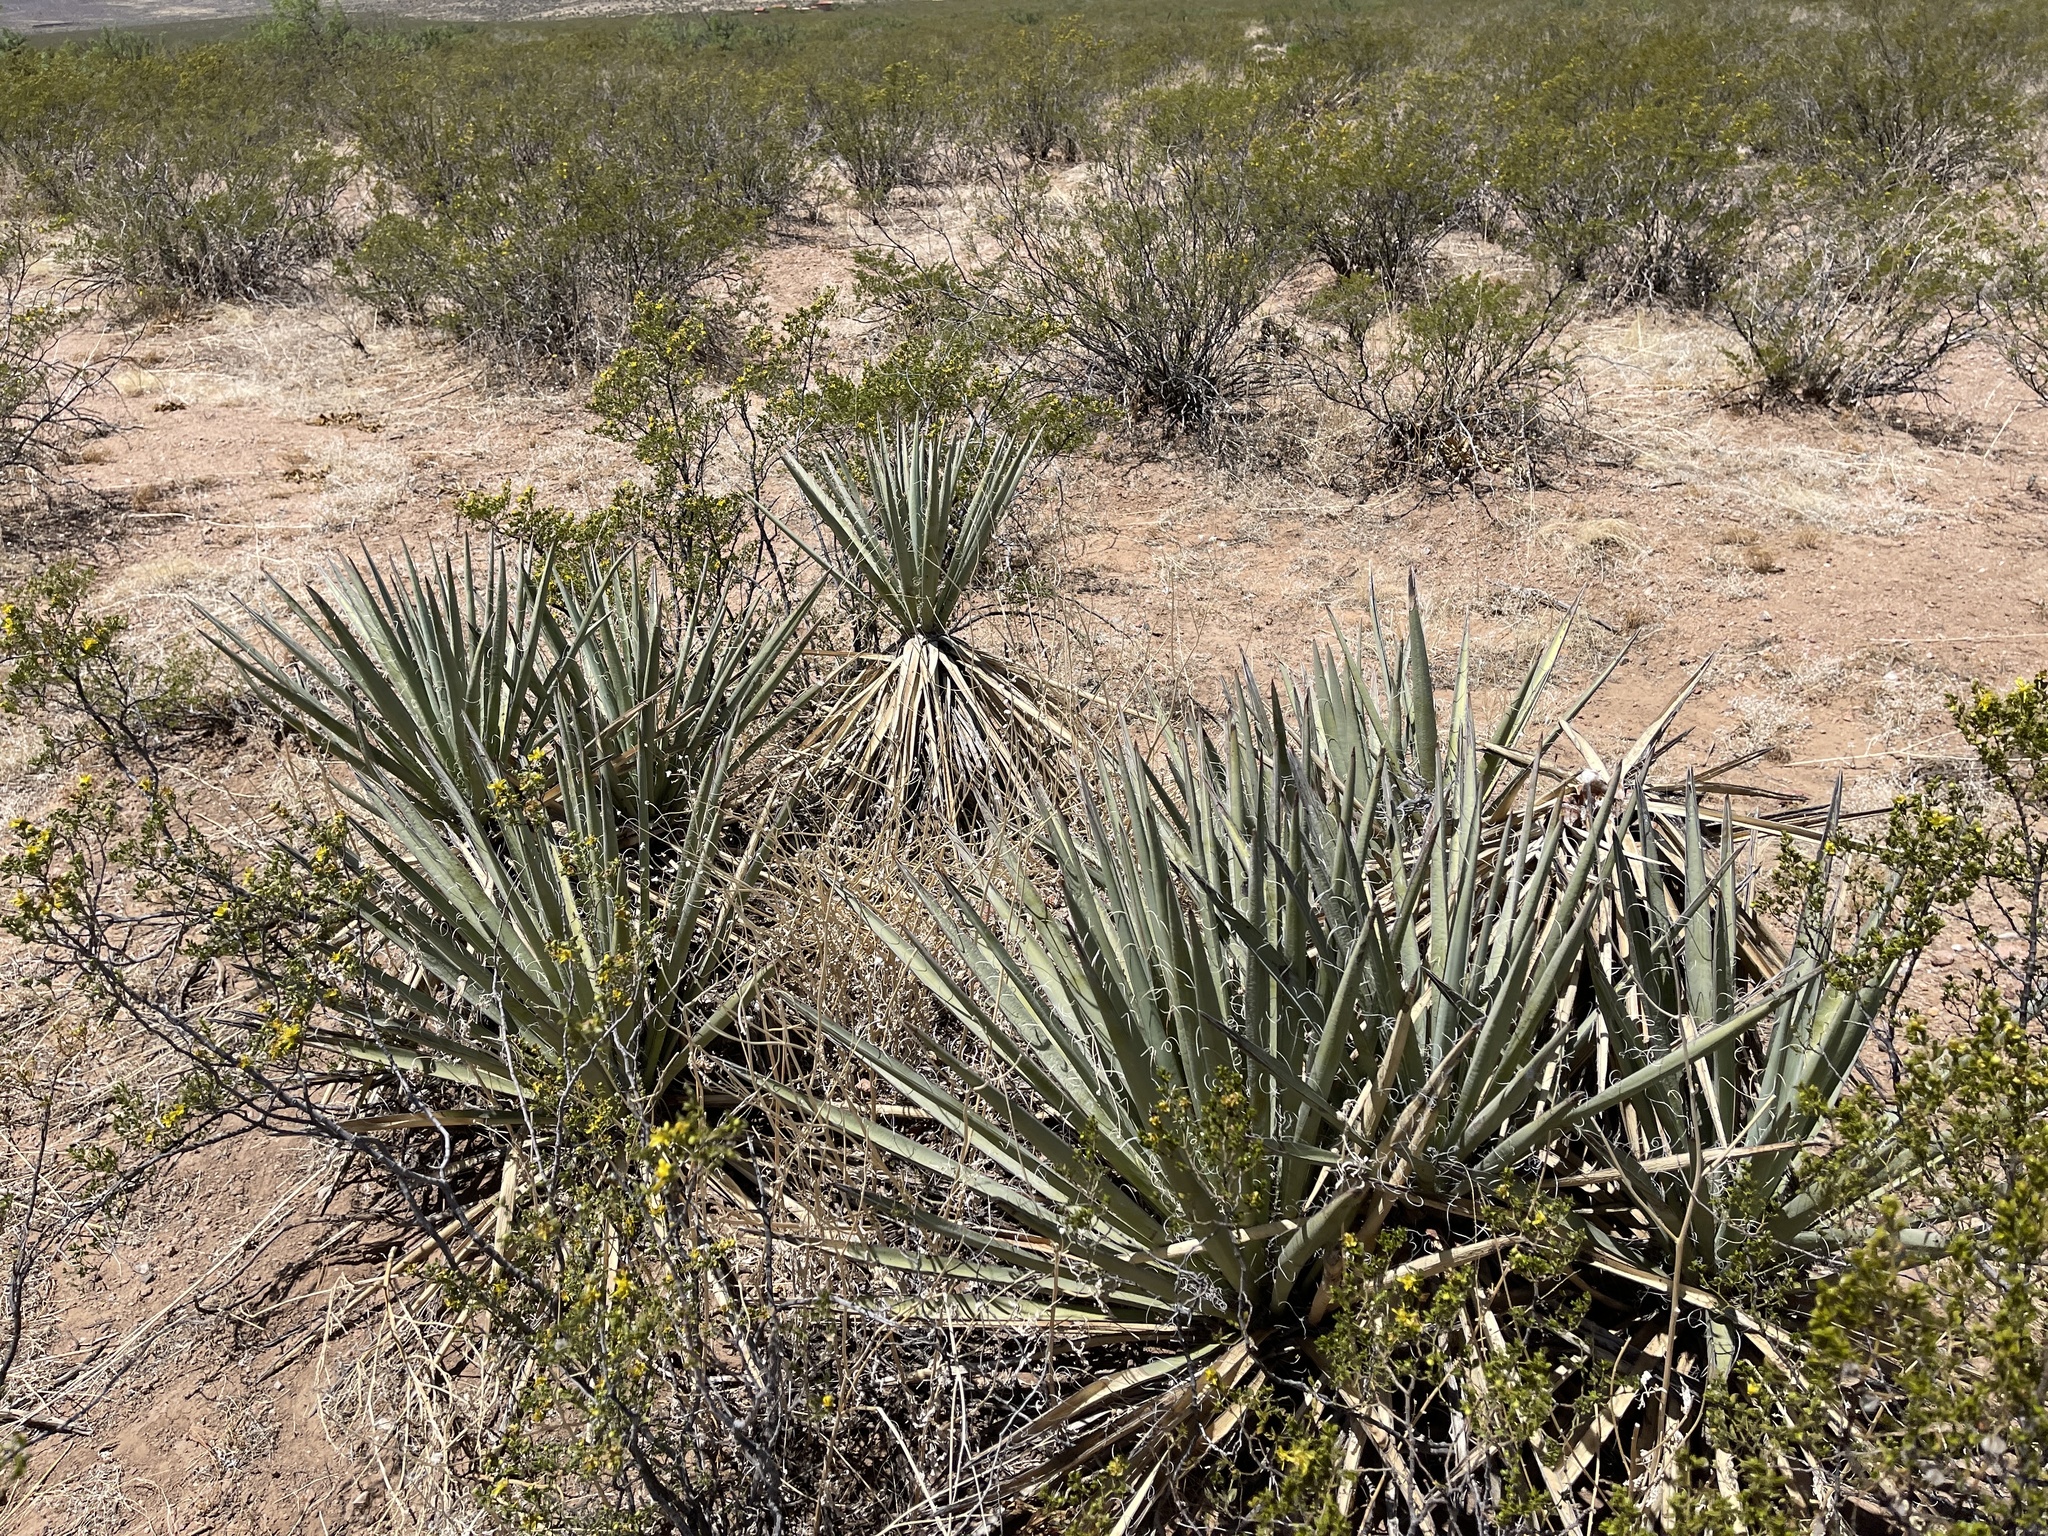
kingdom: Plantae
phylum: Tracheophyta
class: Liliopsida
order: Asparagales
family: Asparagaceae
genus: Yucca
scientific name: Yucca baccata
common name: Banana yucca
